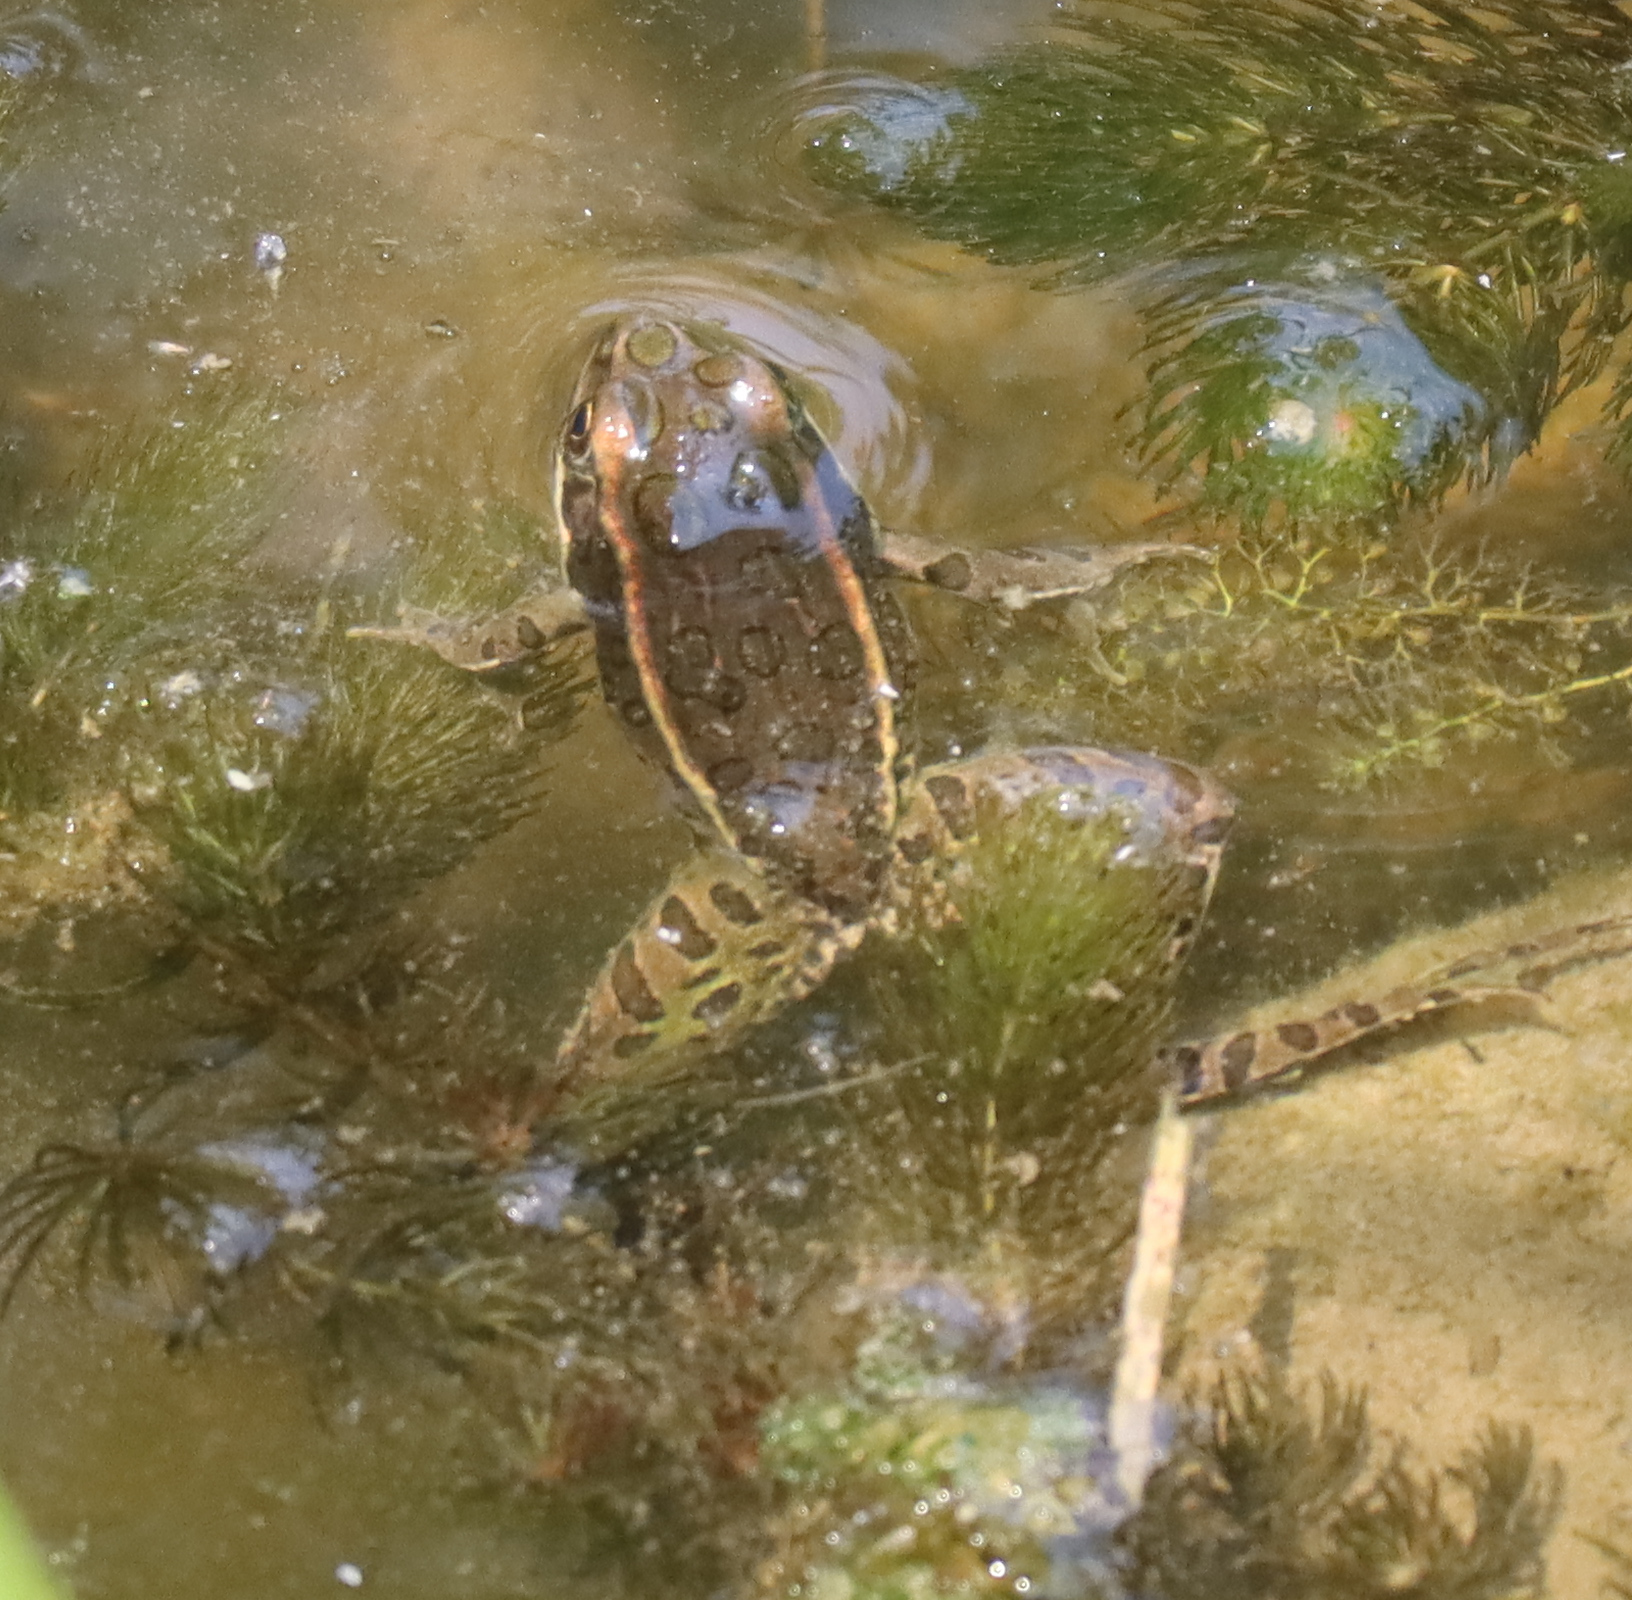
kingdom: Animalia
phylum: Chordata
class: Amphibia
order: Anura
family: Ranidae
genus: Lithobates
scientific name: Lithobates pipiens
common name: Northern leopard frog
